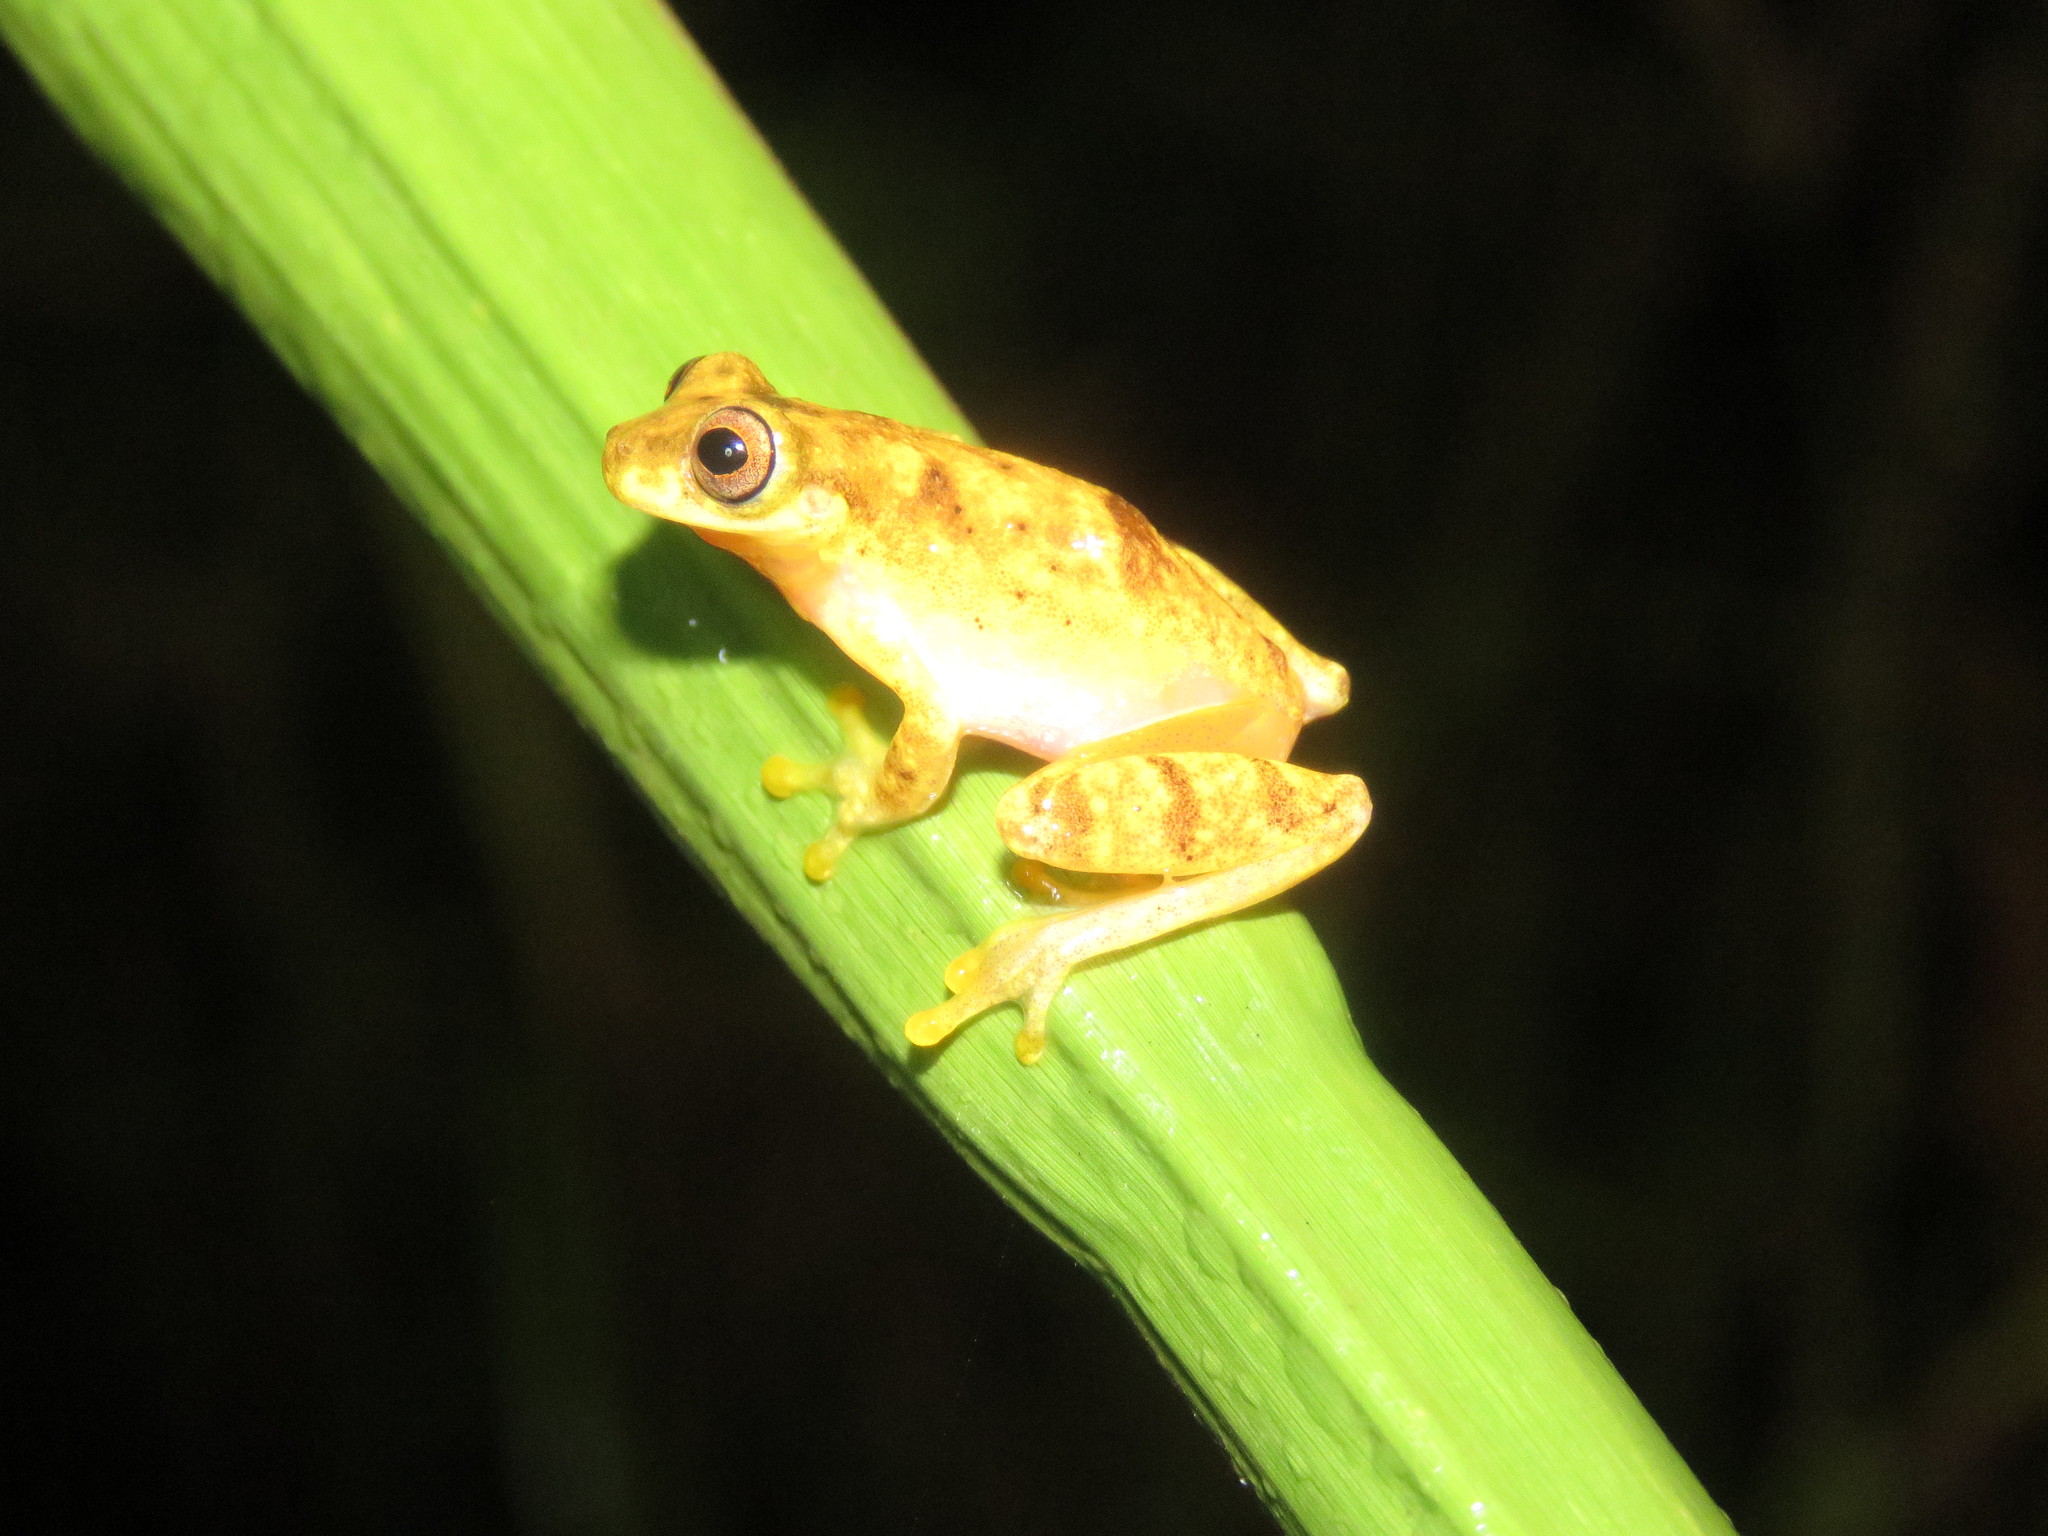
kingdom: Animalia
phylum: Chordata
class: Amphibia
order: Anura
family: Hylidae
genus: Dendropsophus
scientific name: Dendropsophus joannae
